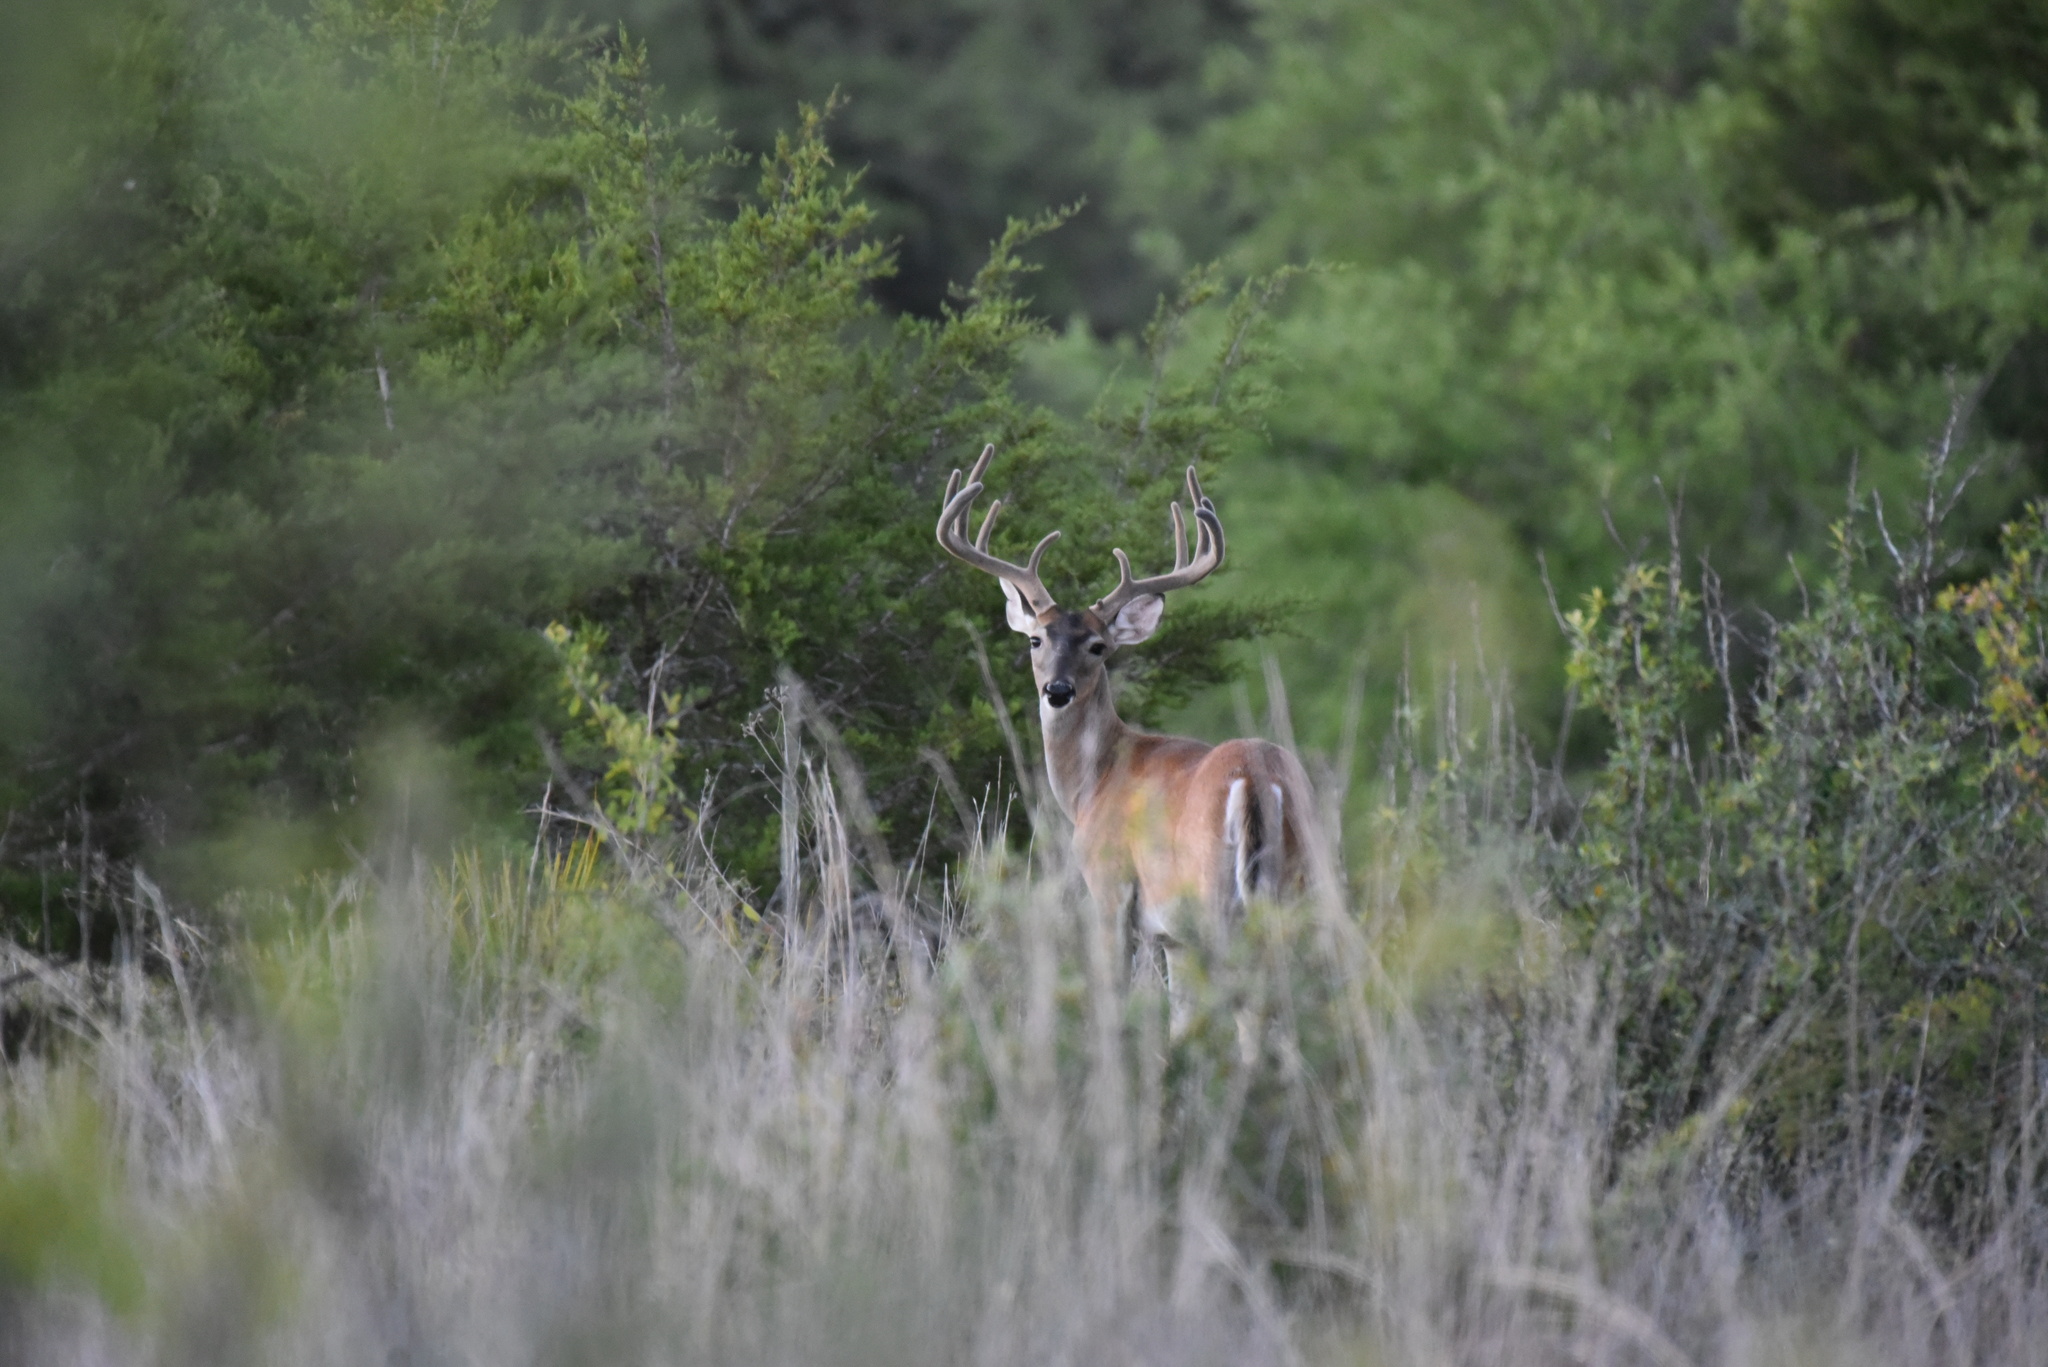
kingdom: Animalia
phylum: Chordata
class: Mammalia
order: Artiodactyla
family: Cervidae
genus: Odocoileus
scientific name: Odocoileus virginianus
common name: White-tailed deer
